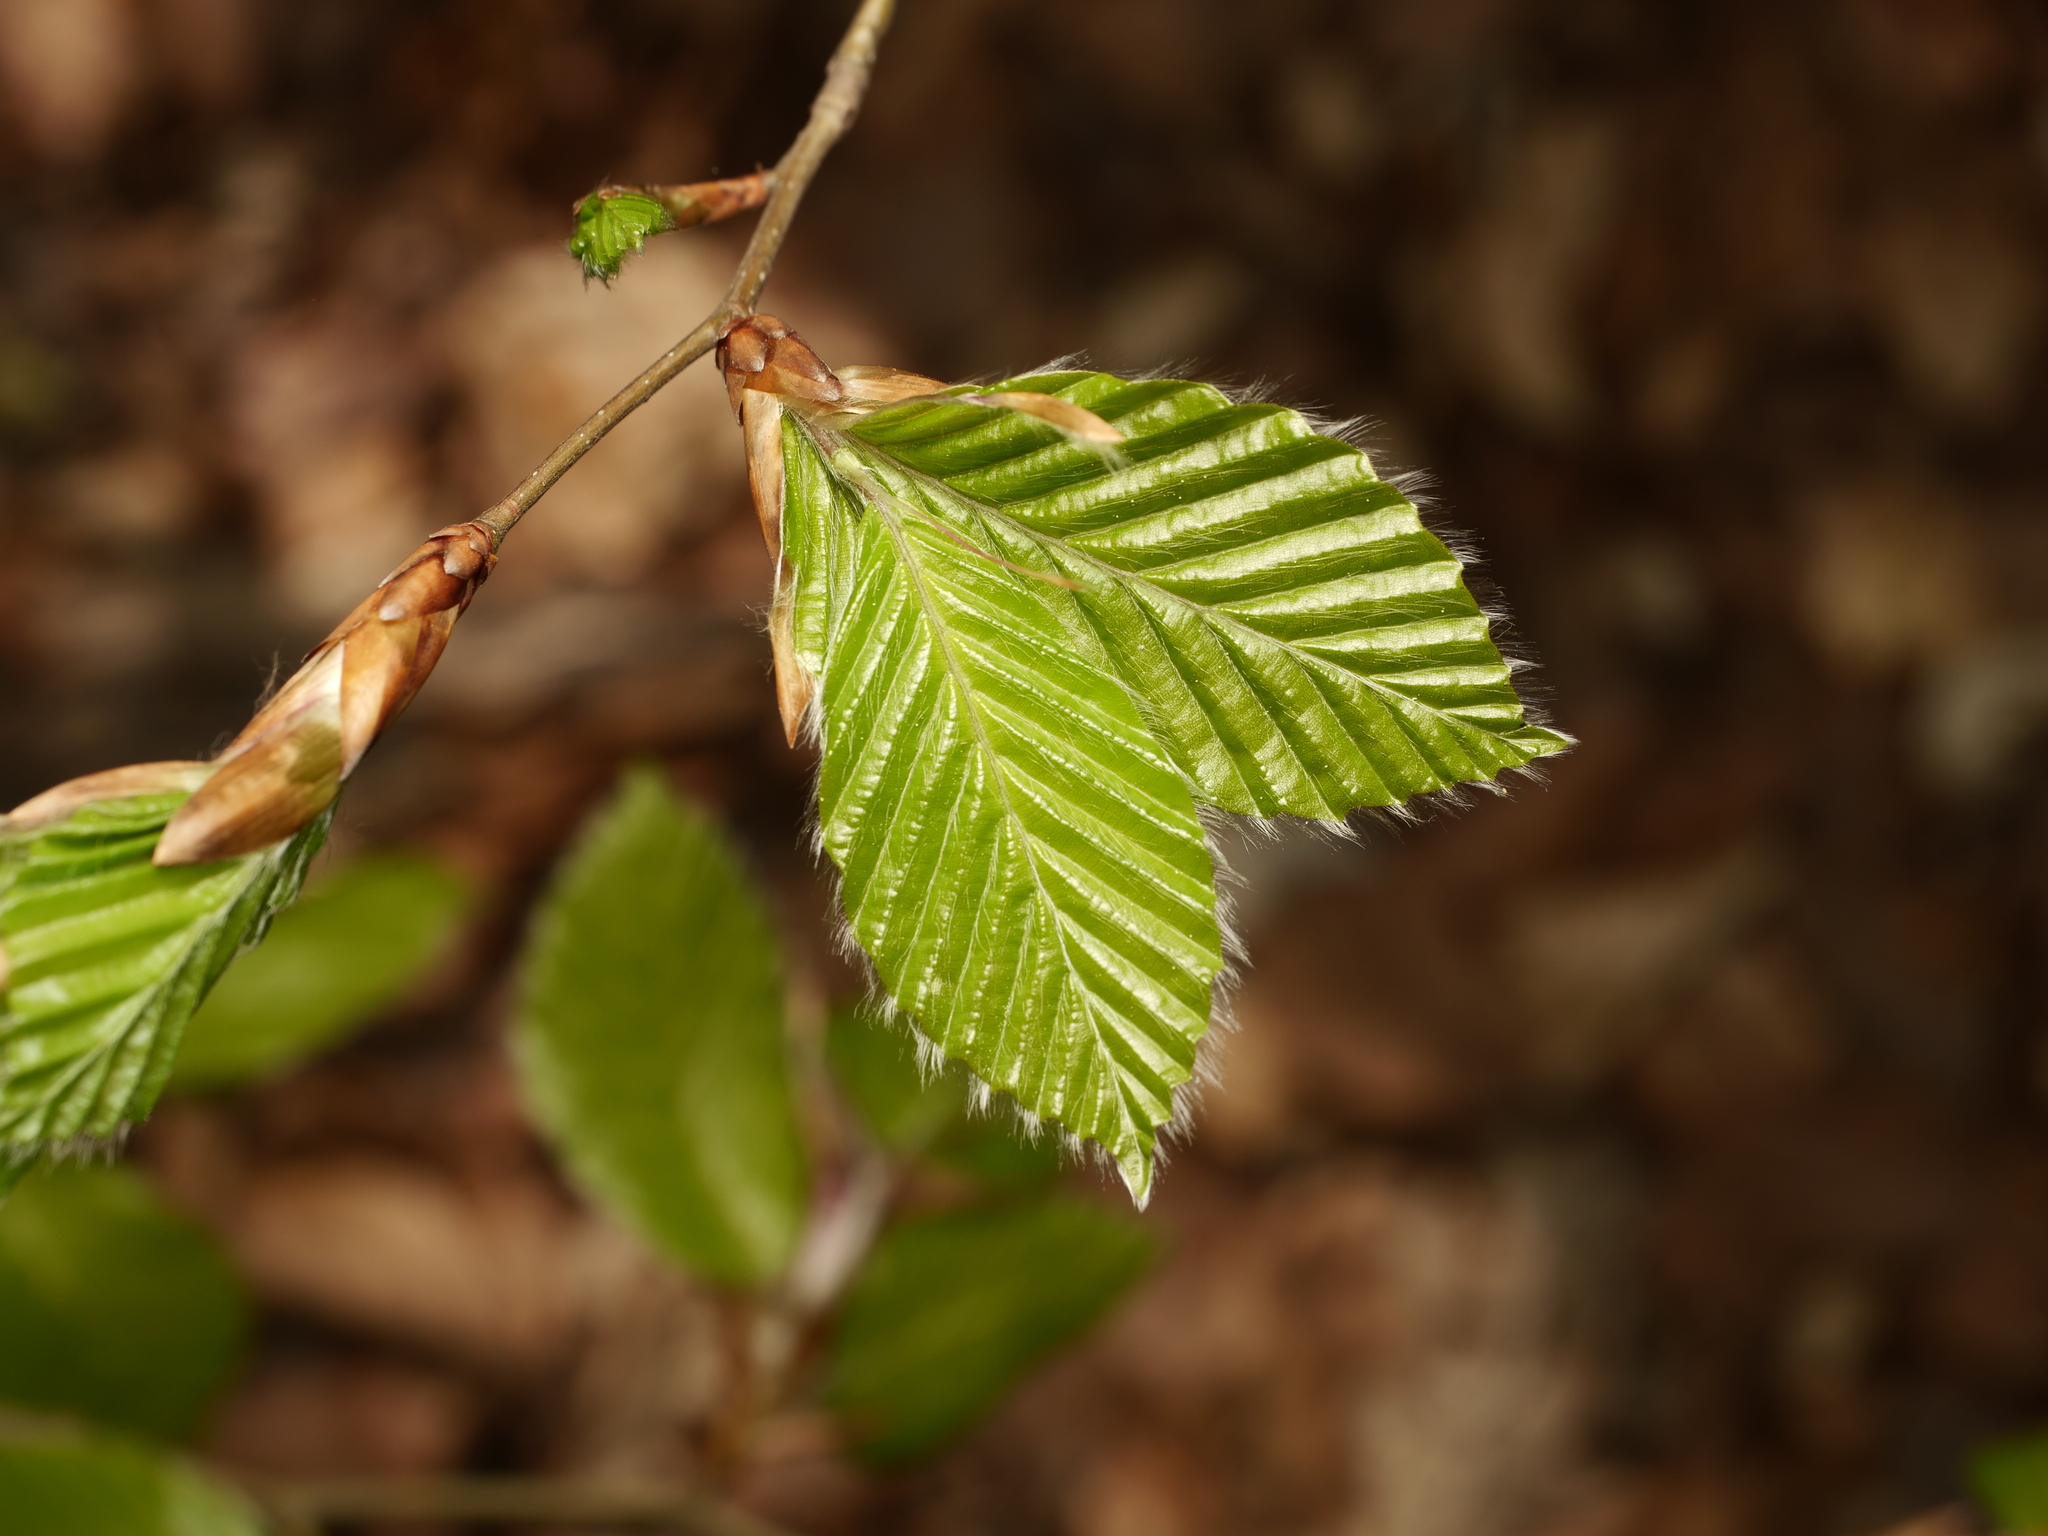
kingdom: Plantae
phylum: Tracheophyta
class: Magnoliopsida
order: Fagales
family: Fagaceae
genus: Fagus
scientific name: Fagus sylvatica
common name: Beech
